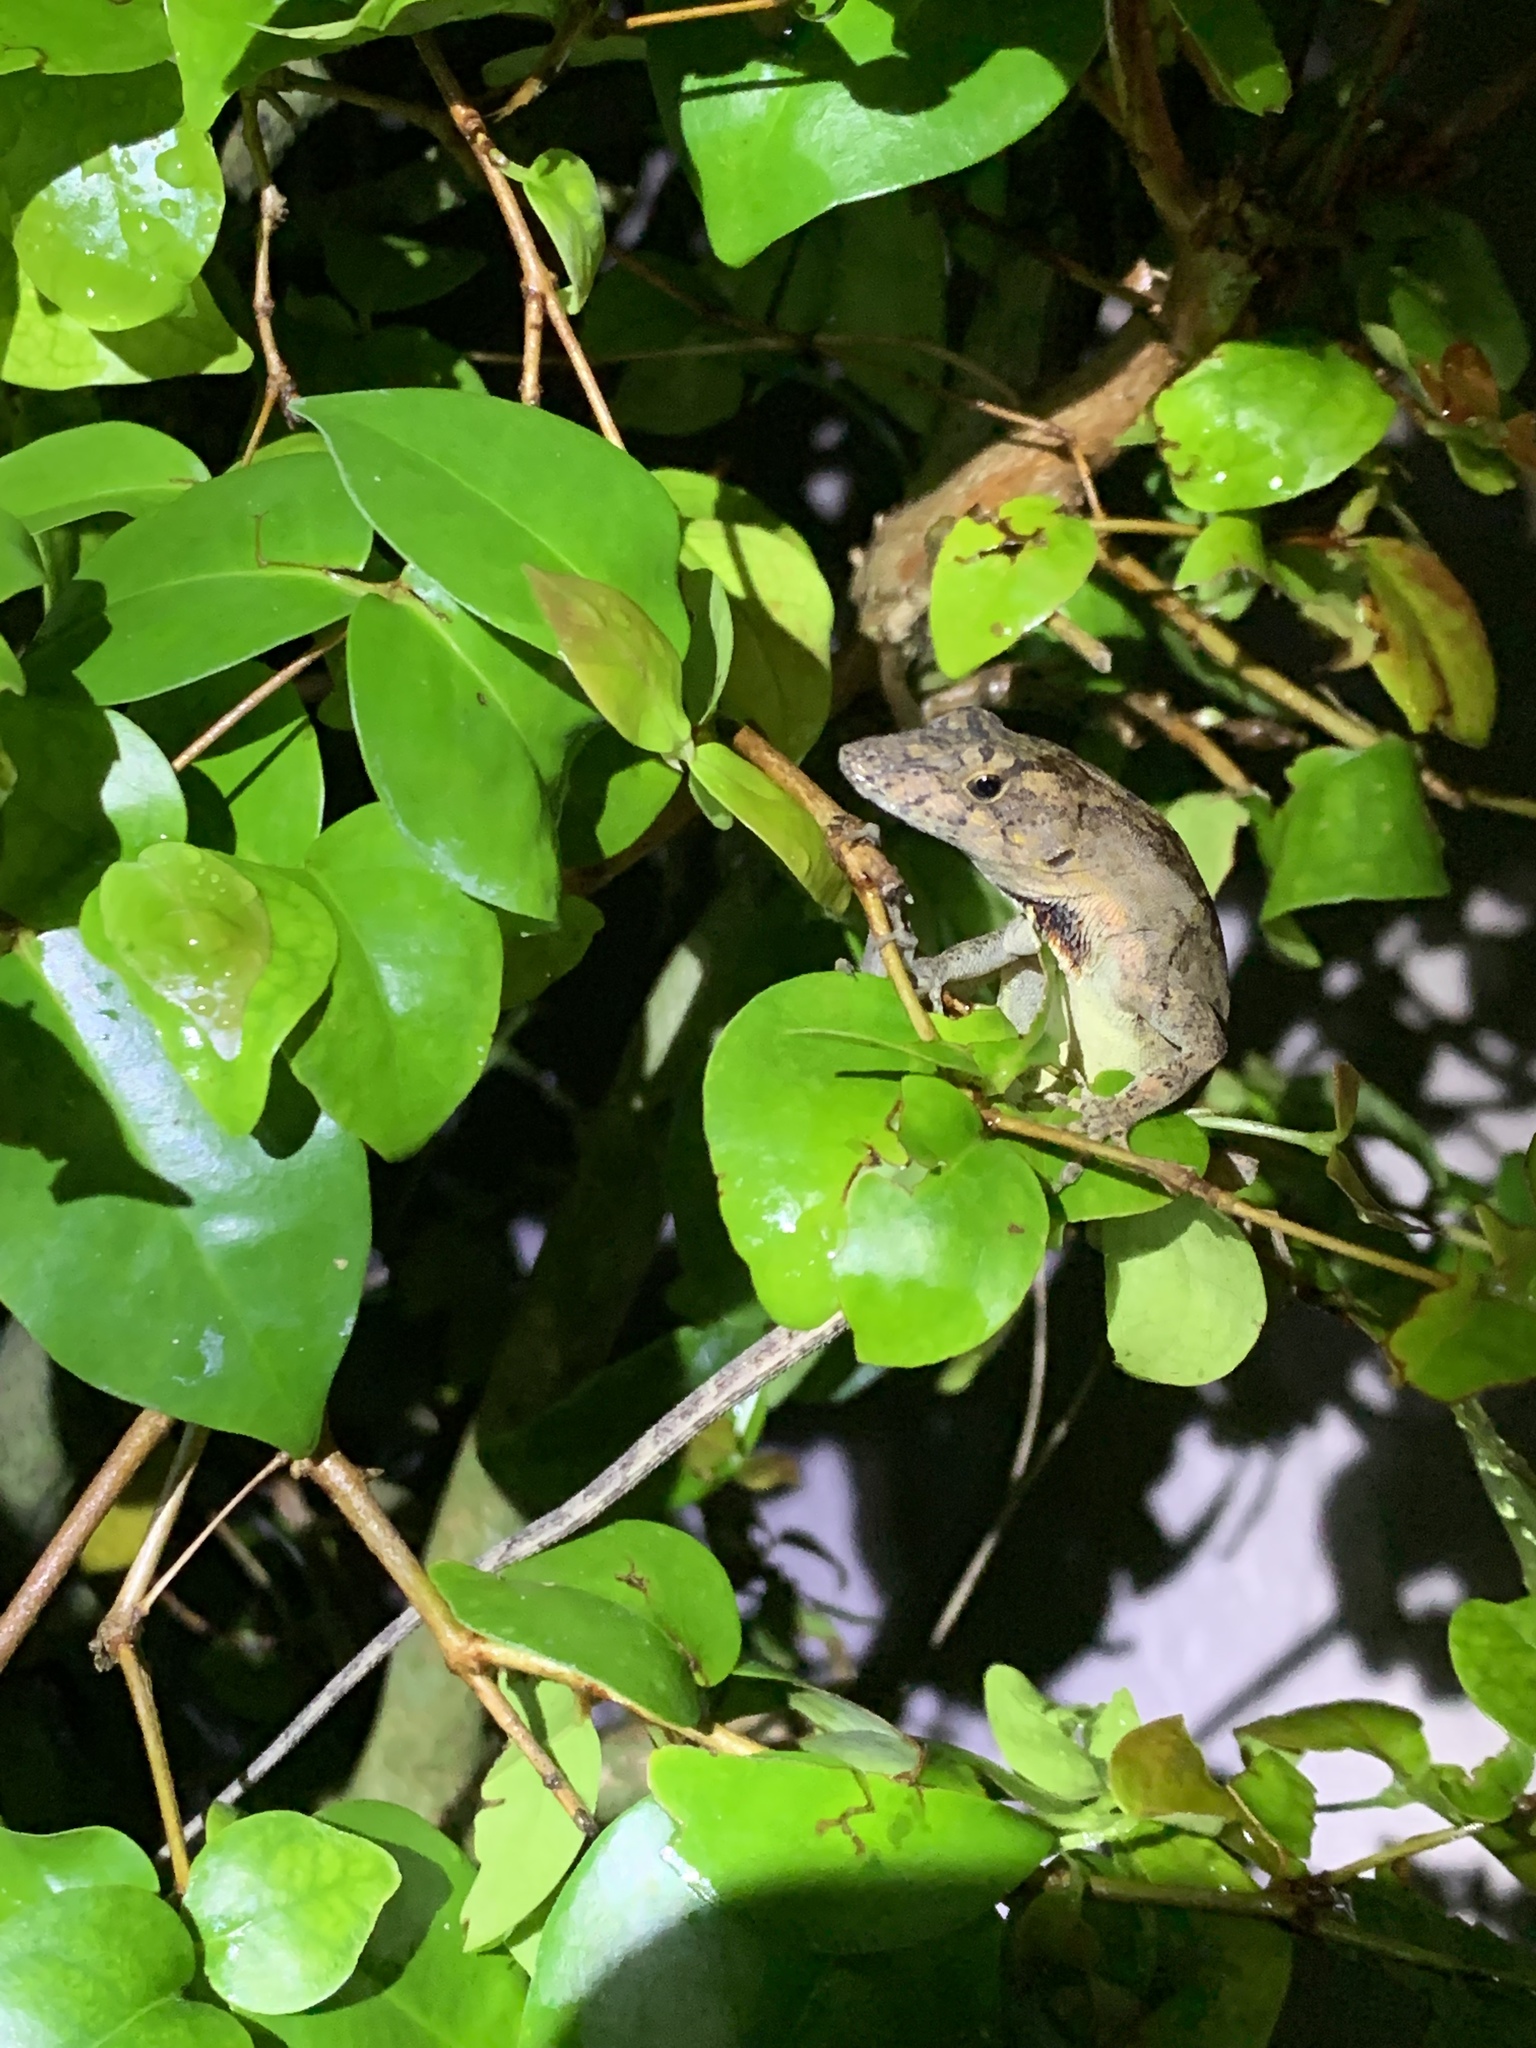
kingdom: Animalia
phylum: Chordata
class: Squamata
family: Dactyloidae
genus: Anolis
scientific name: Anolis sagrei
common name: Brown anole
